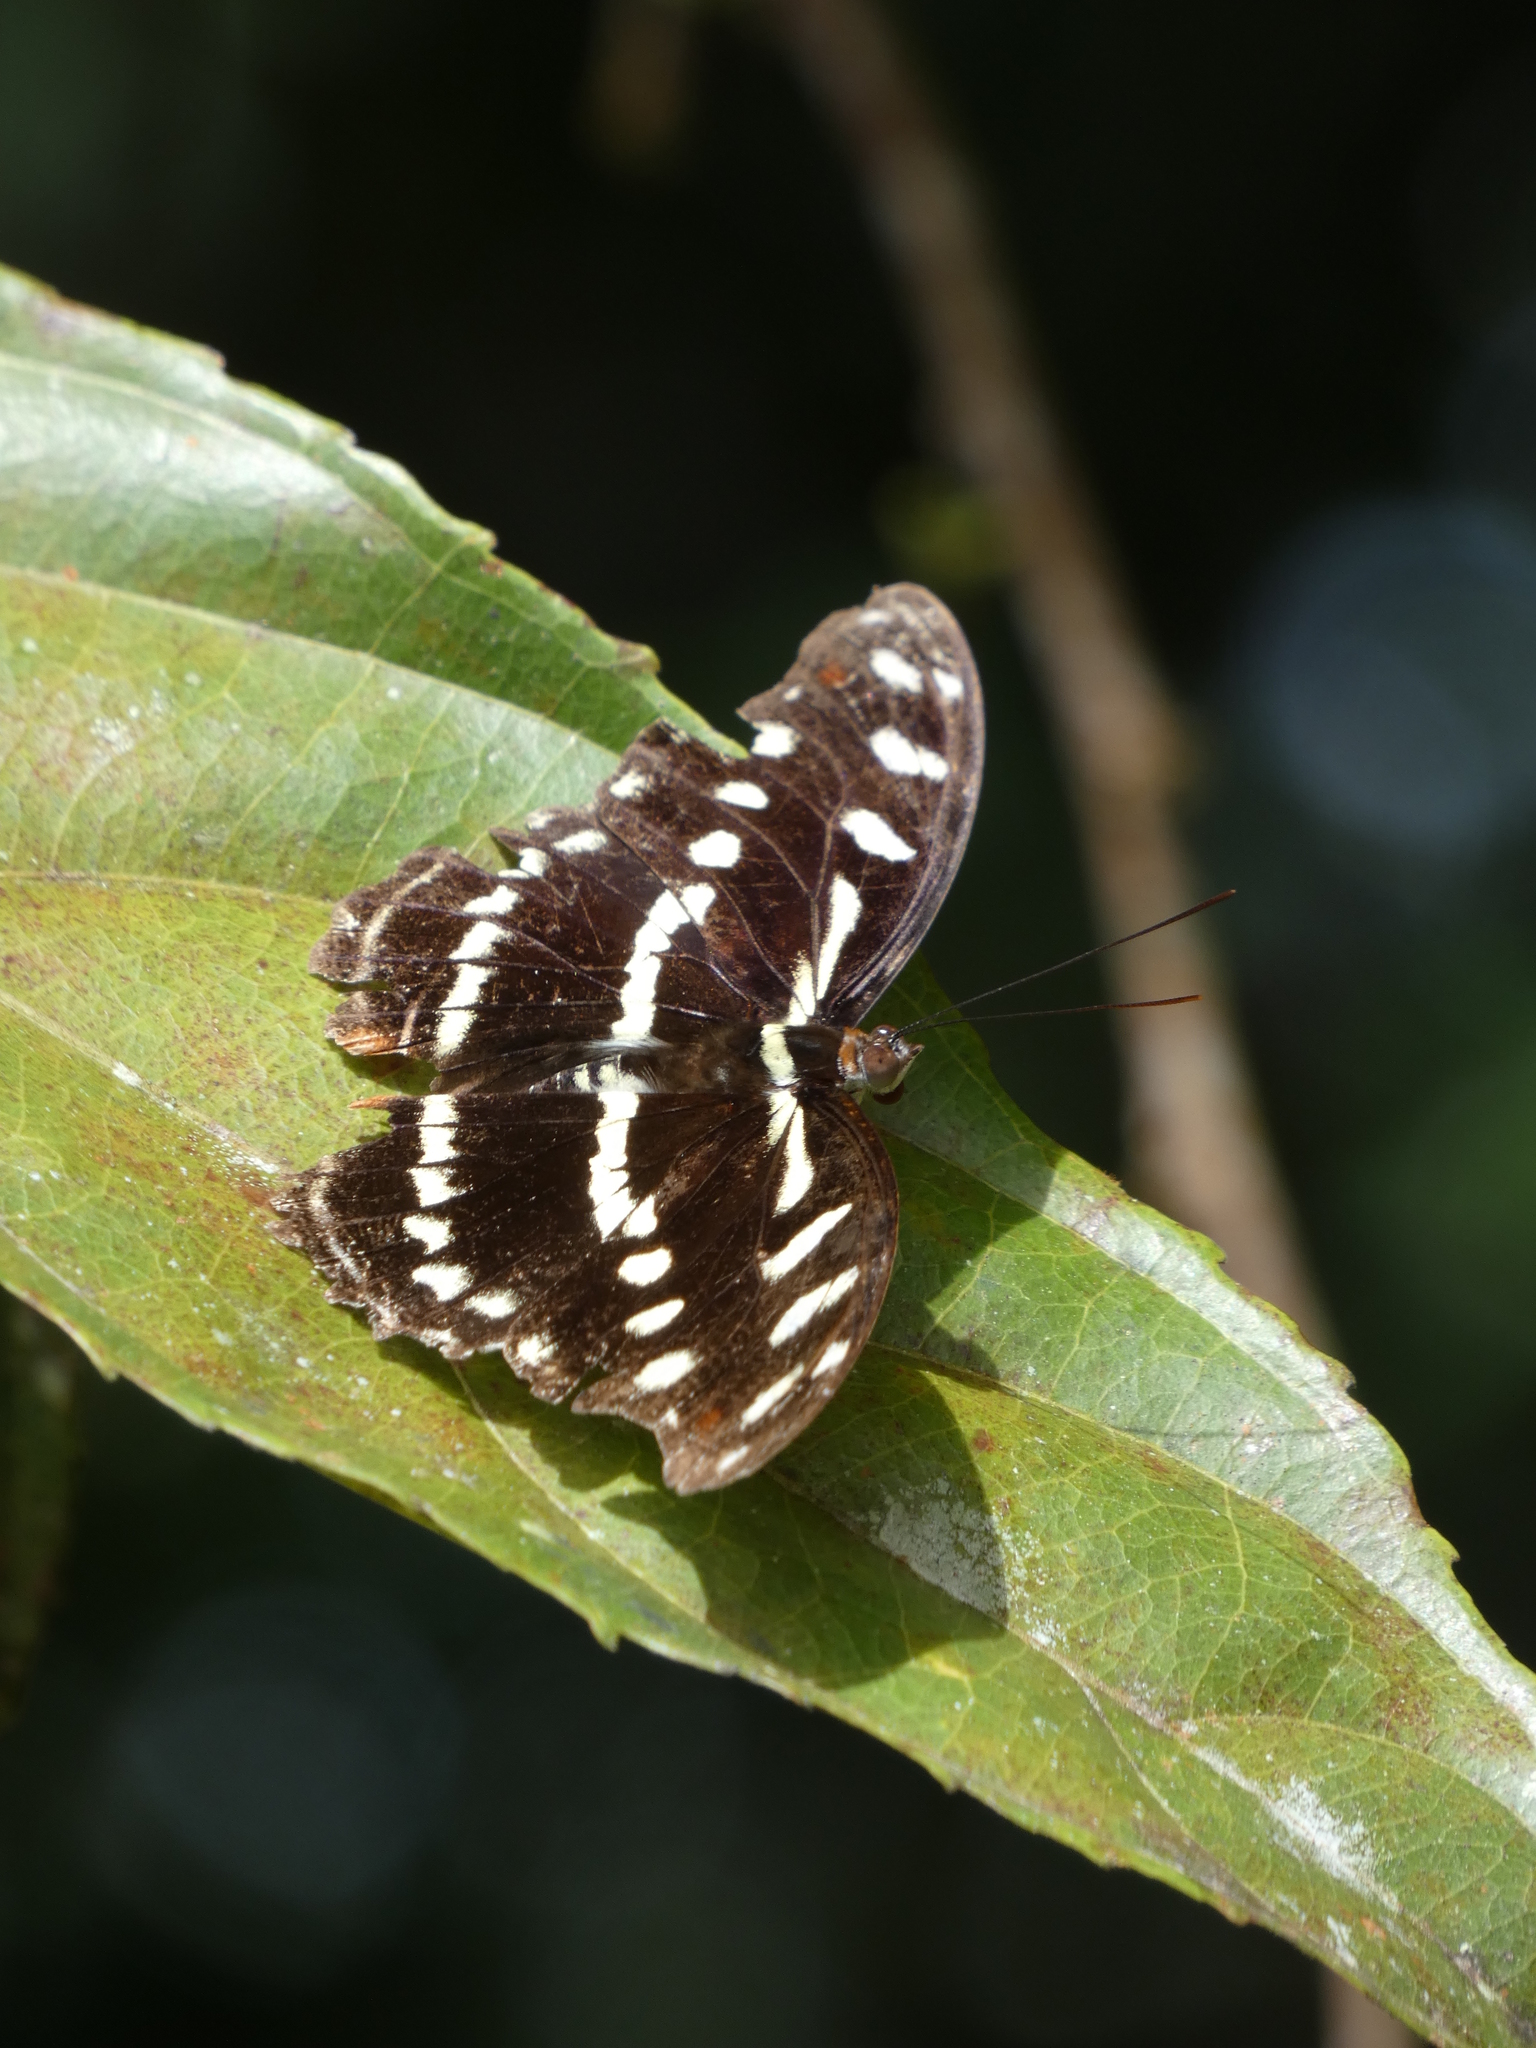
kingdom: Animalia
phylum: Arthropoda
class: Insecta
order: Lepidoptera
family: Nymphalidae
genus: Catonephele
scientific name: Catonephele acontius
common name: Unspotted firewing
